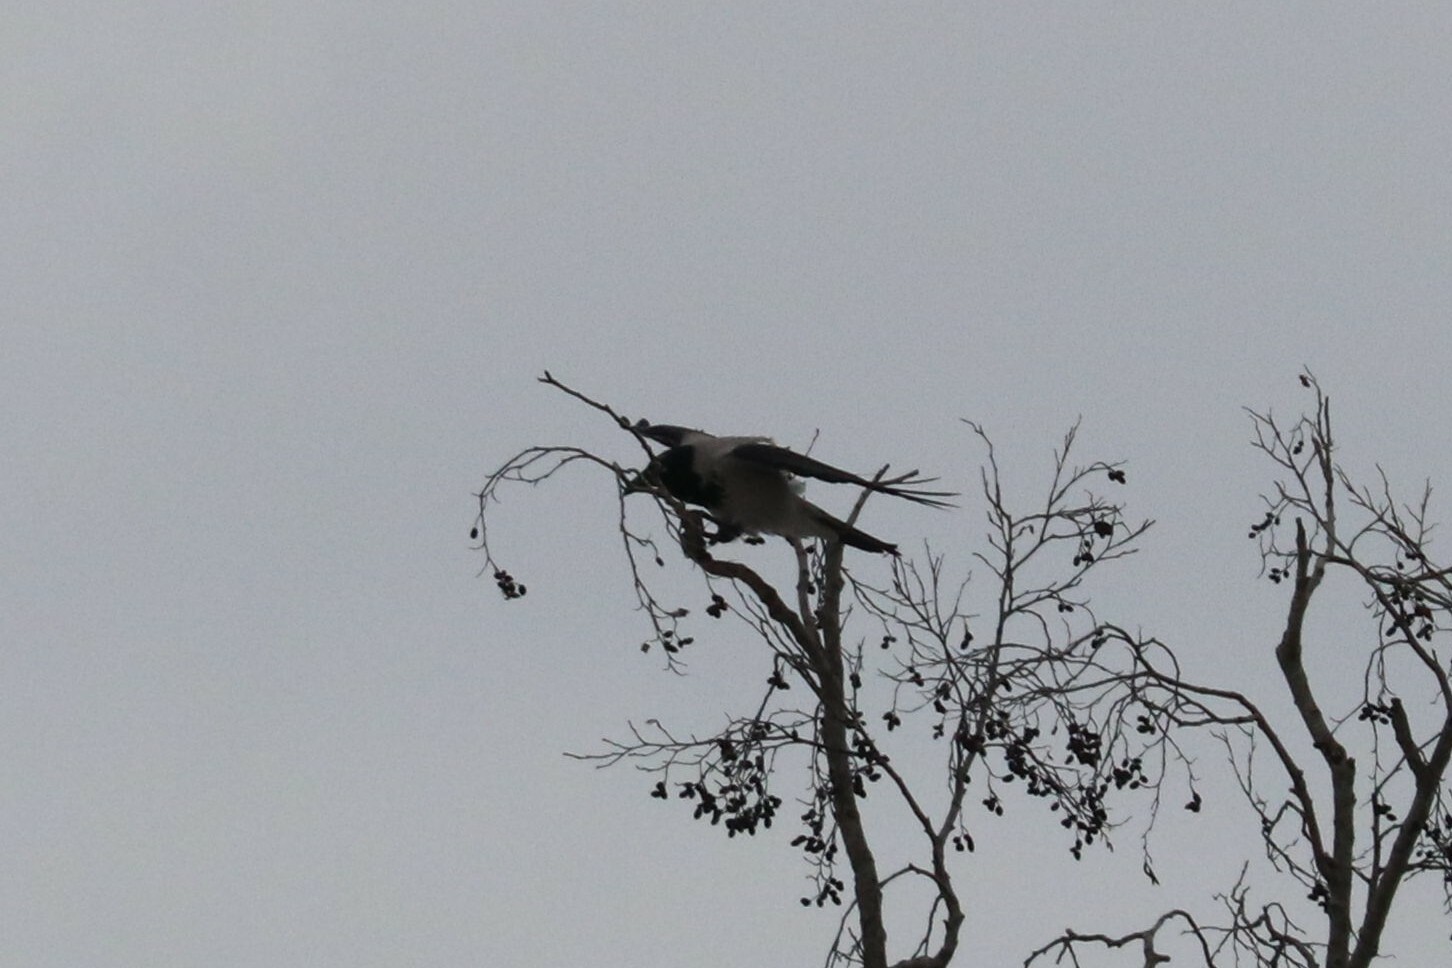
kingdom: Animalia
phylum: Chordata
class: Aves
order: Passeriformes
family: Corvidae
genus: Corvus
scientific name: Corvus cornix
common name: Hooded crow
